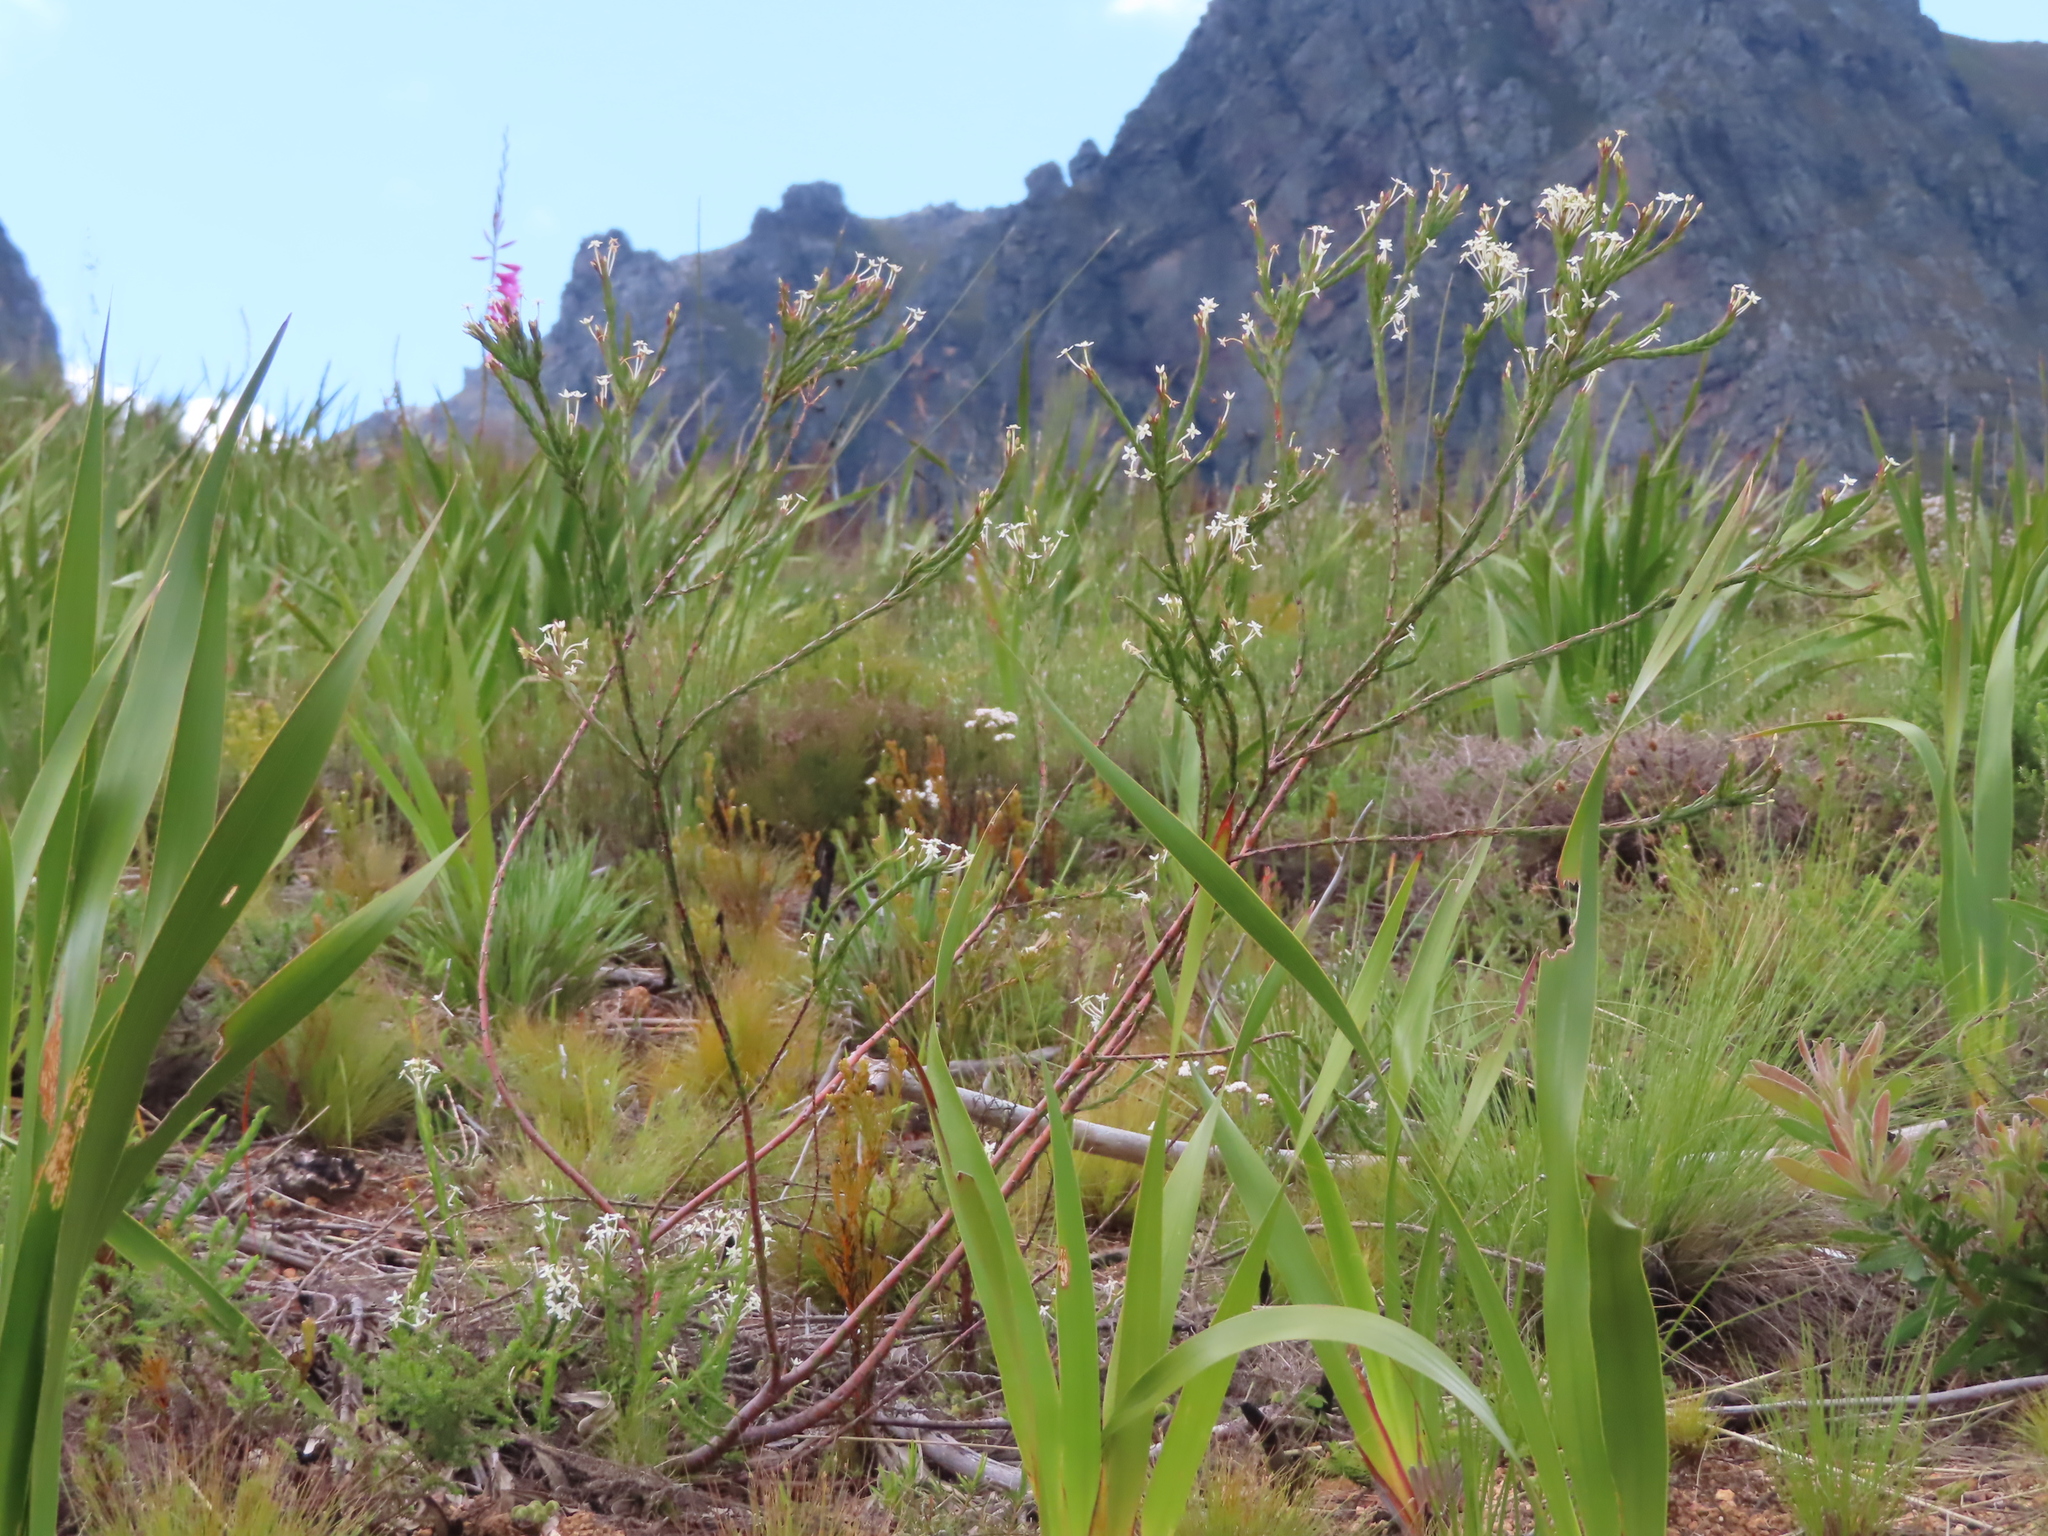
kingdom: Plantae
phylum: Tracheophyta
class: Magnoliopsida
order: Malvales
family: Thymelaeaceae
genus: Struthiola
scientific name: Struthiola myrsinites
